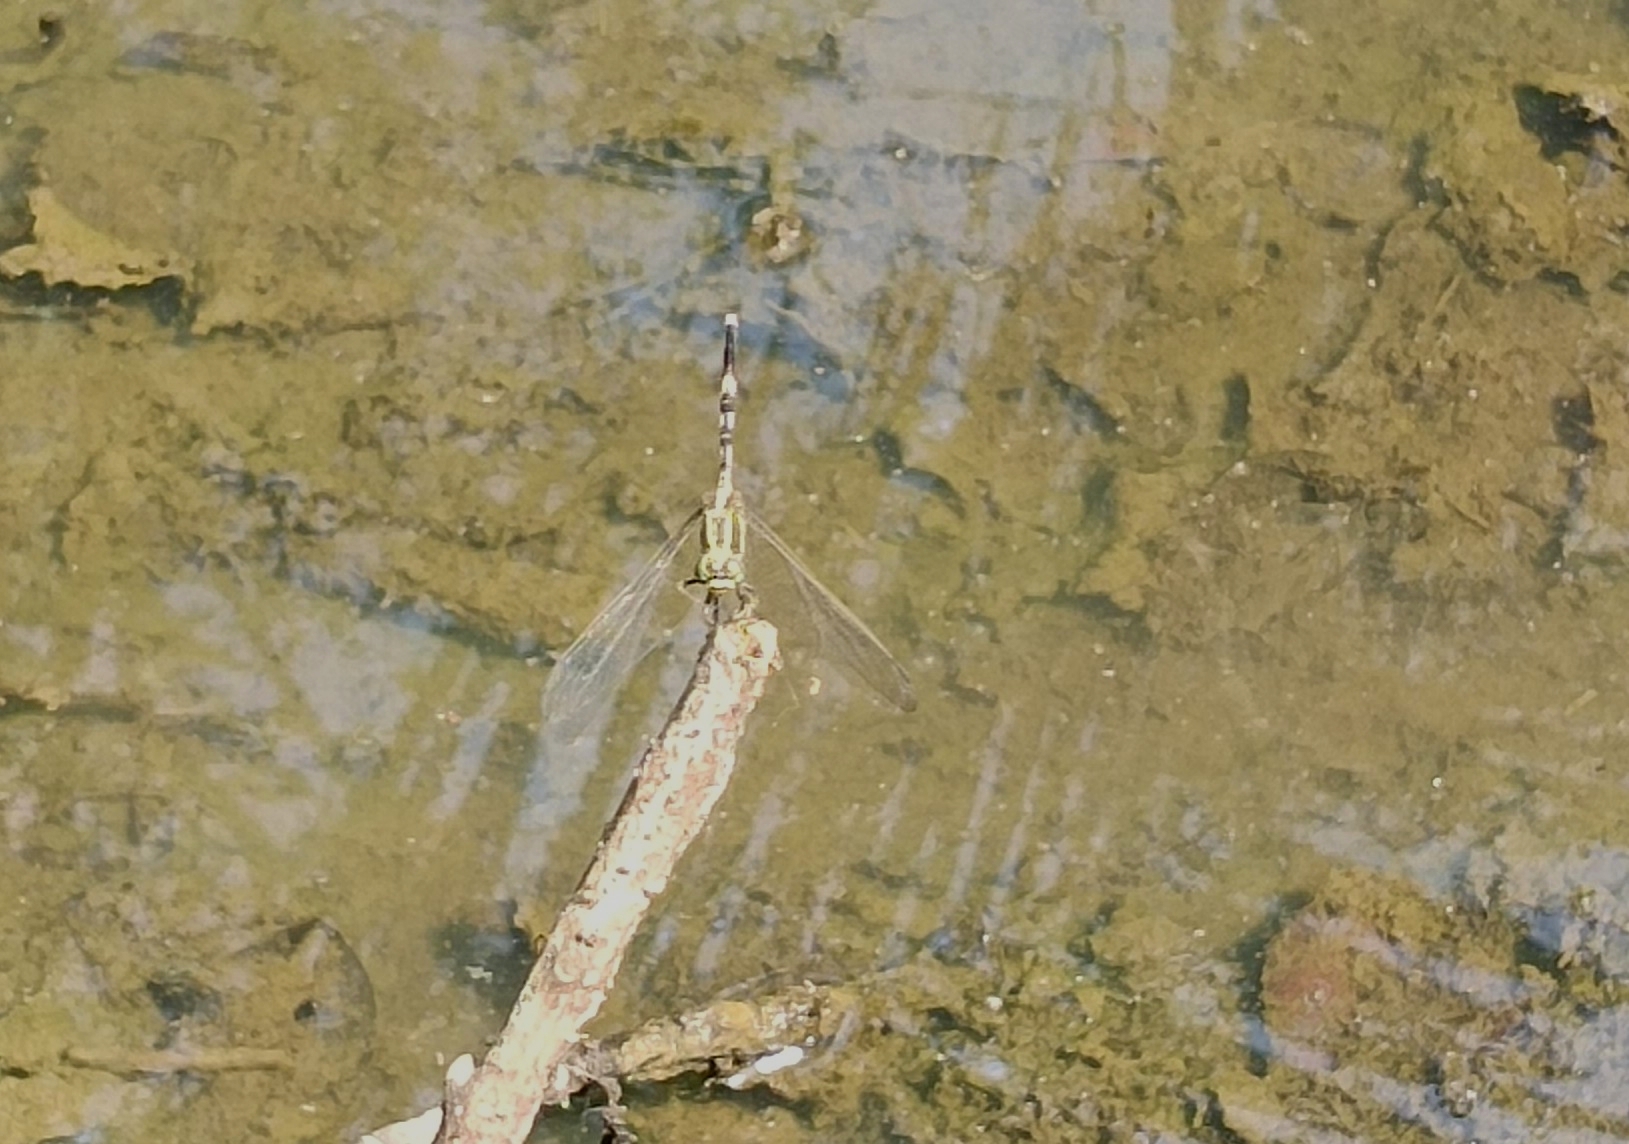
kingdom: Animalia
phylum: Arthropoda
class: Insecta
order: Odonata
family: Libellulidae
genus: Orthetrum
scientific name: Orthetrum sabina
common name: Slender skimmer
